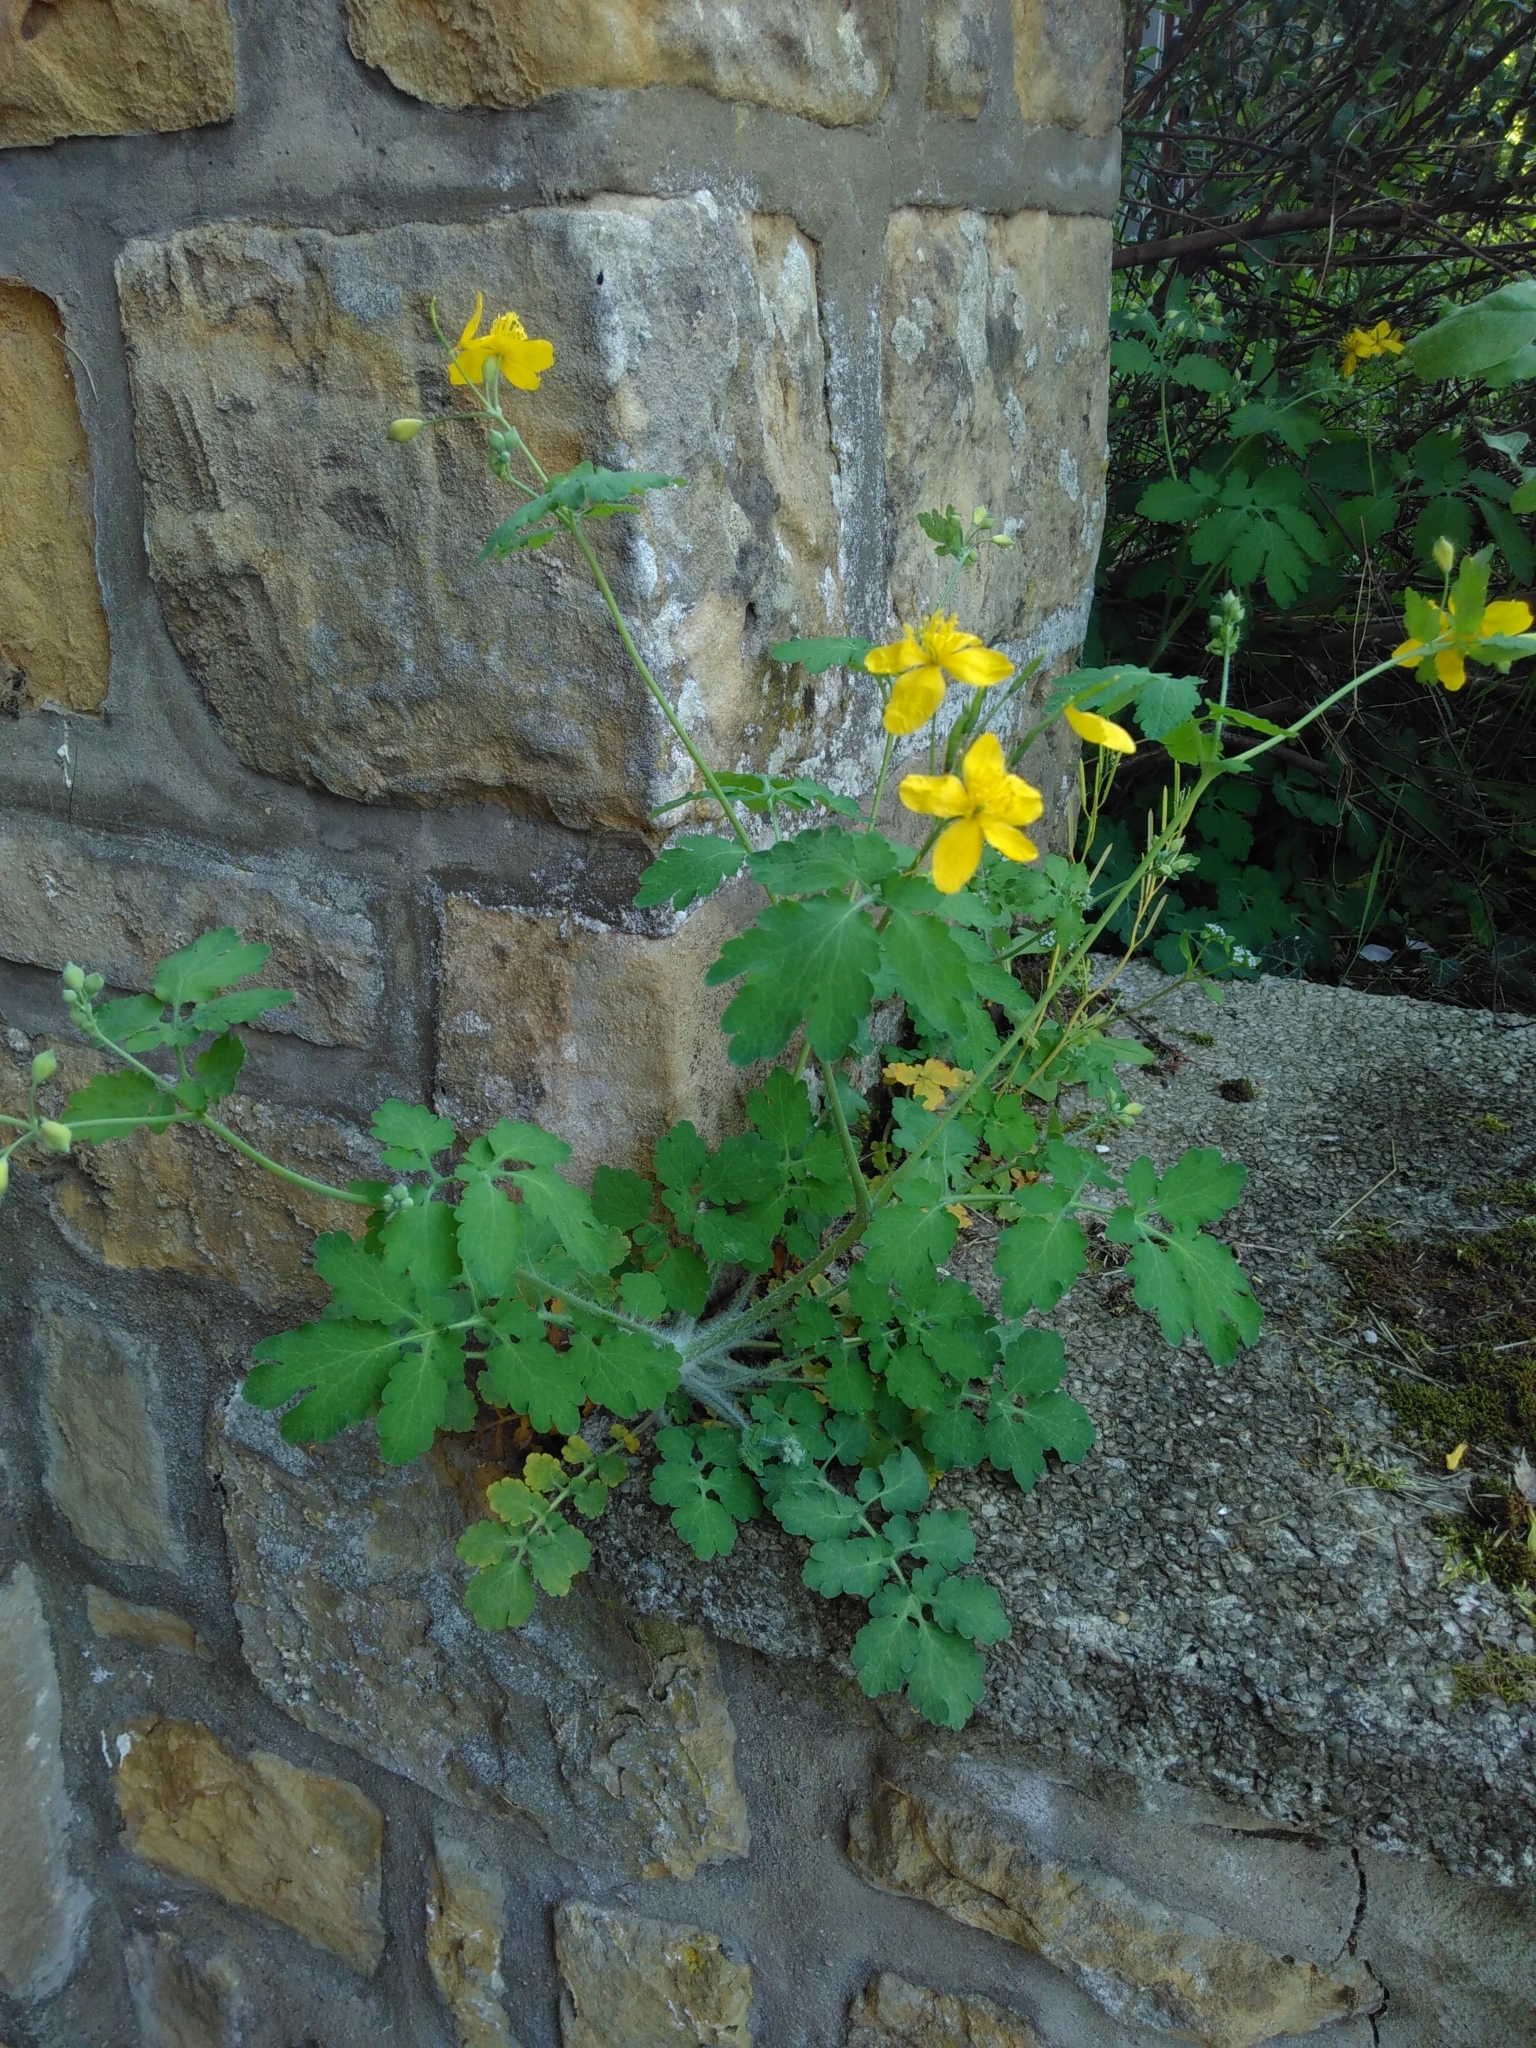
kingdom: Plantae
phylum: Tracheophyta
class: Magnoliopsida
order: Ranunculales
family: Papaveraceae
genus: Chelidonium
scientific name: Chelidonium majus
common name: Greater celandine
